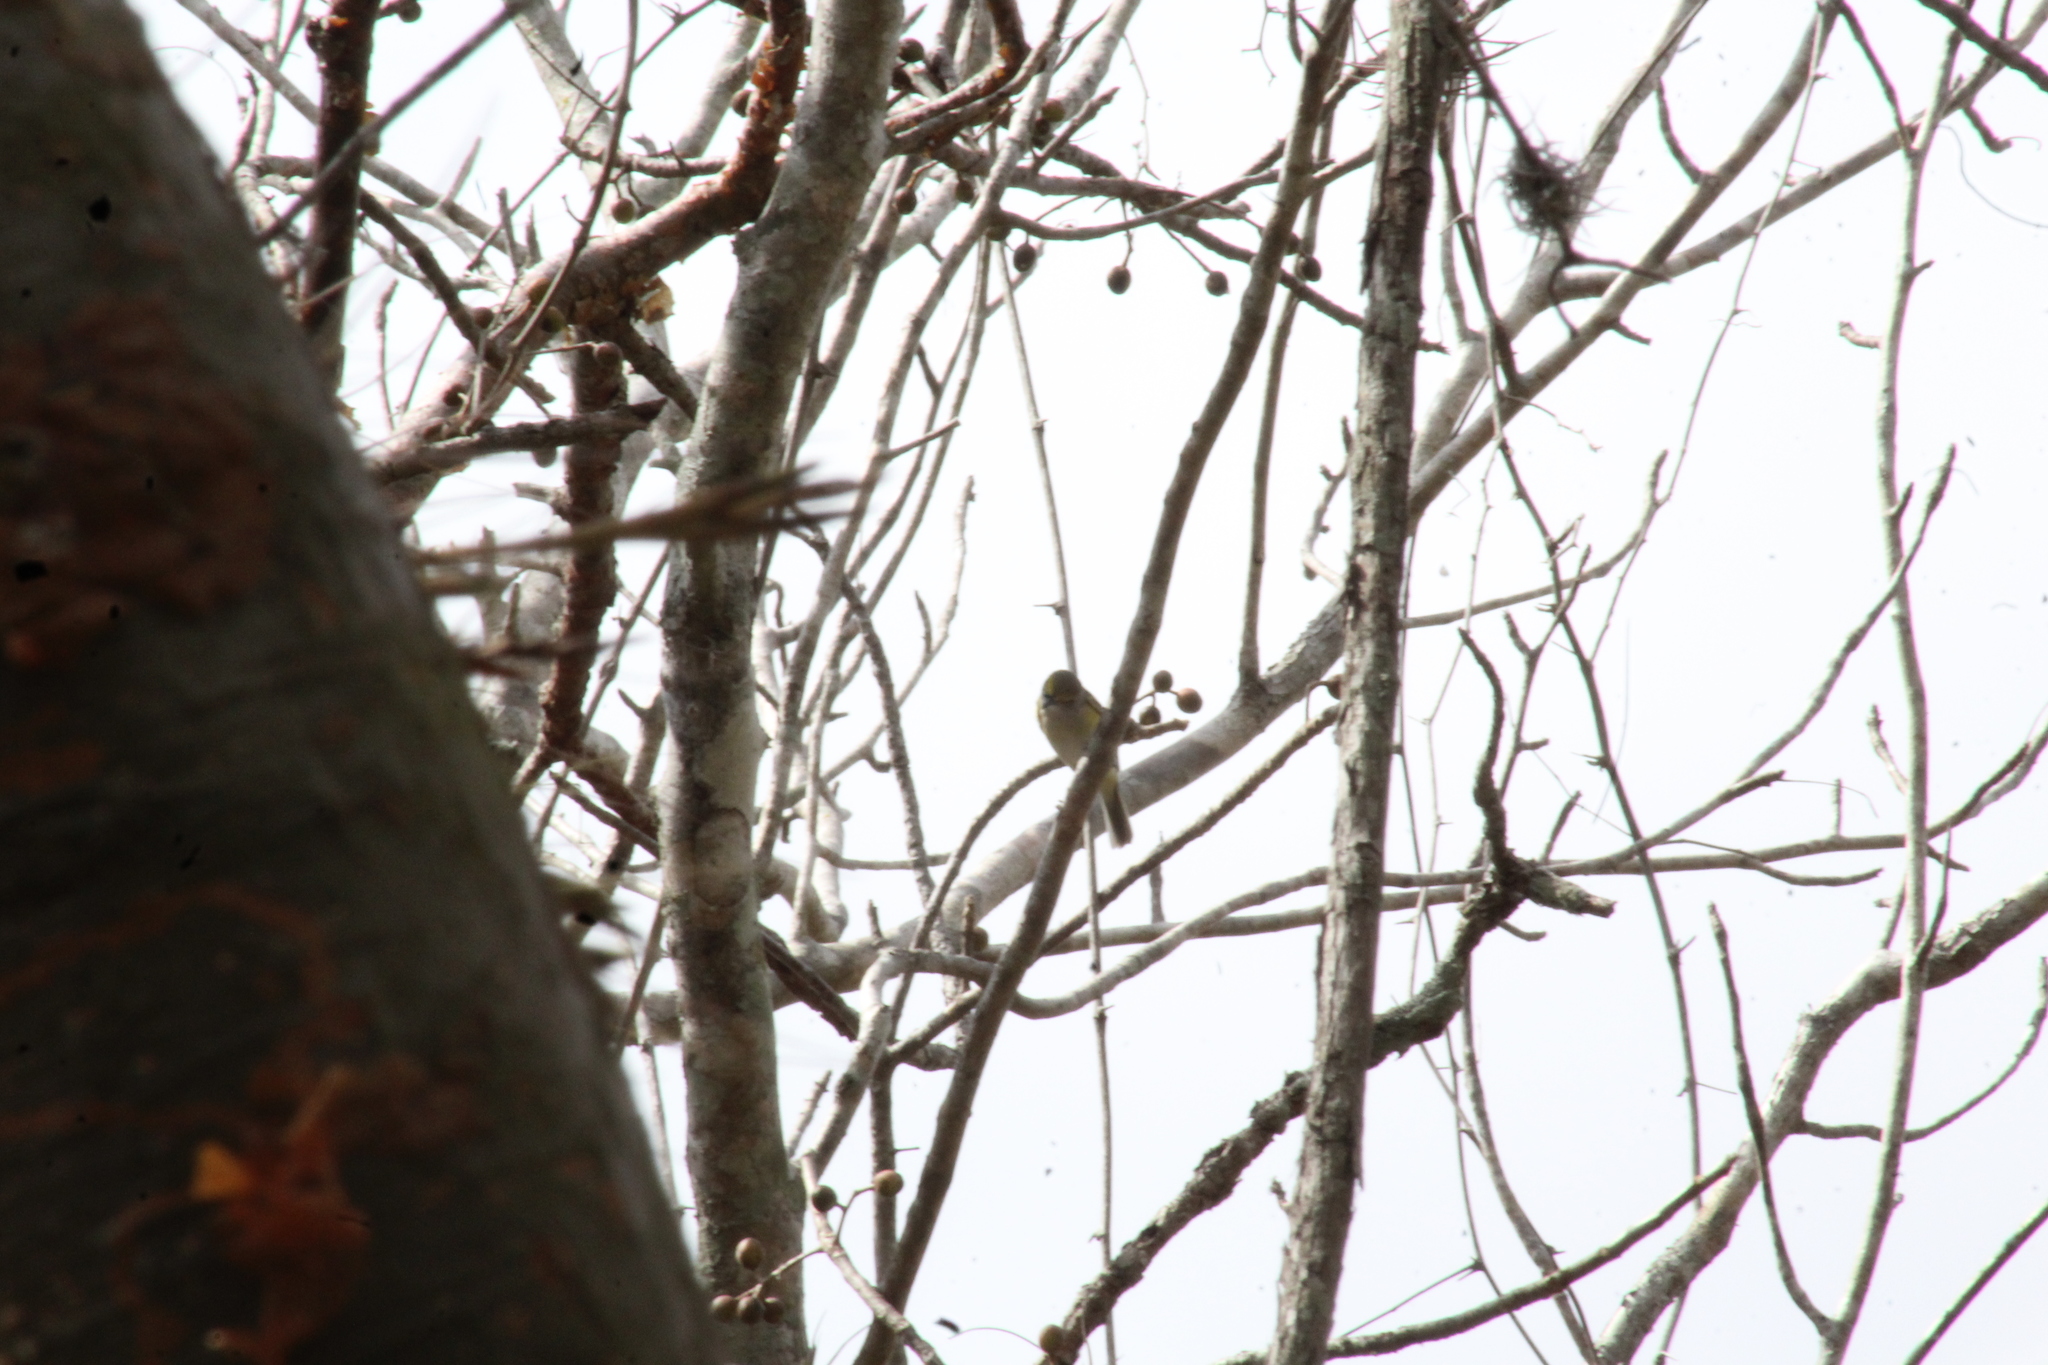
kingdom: Animalia
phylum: Chordata
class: Aves
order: Passeriformes
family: Vireonidae
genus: Vireo
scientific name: Vireo griseus
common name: White-eyed vireo
